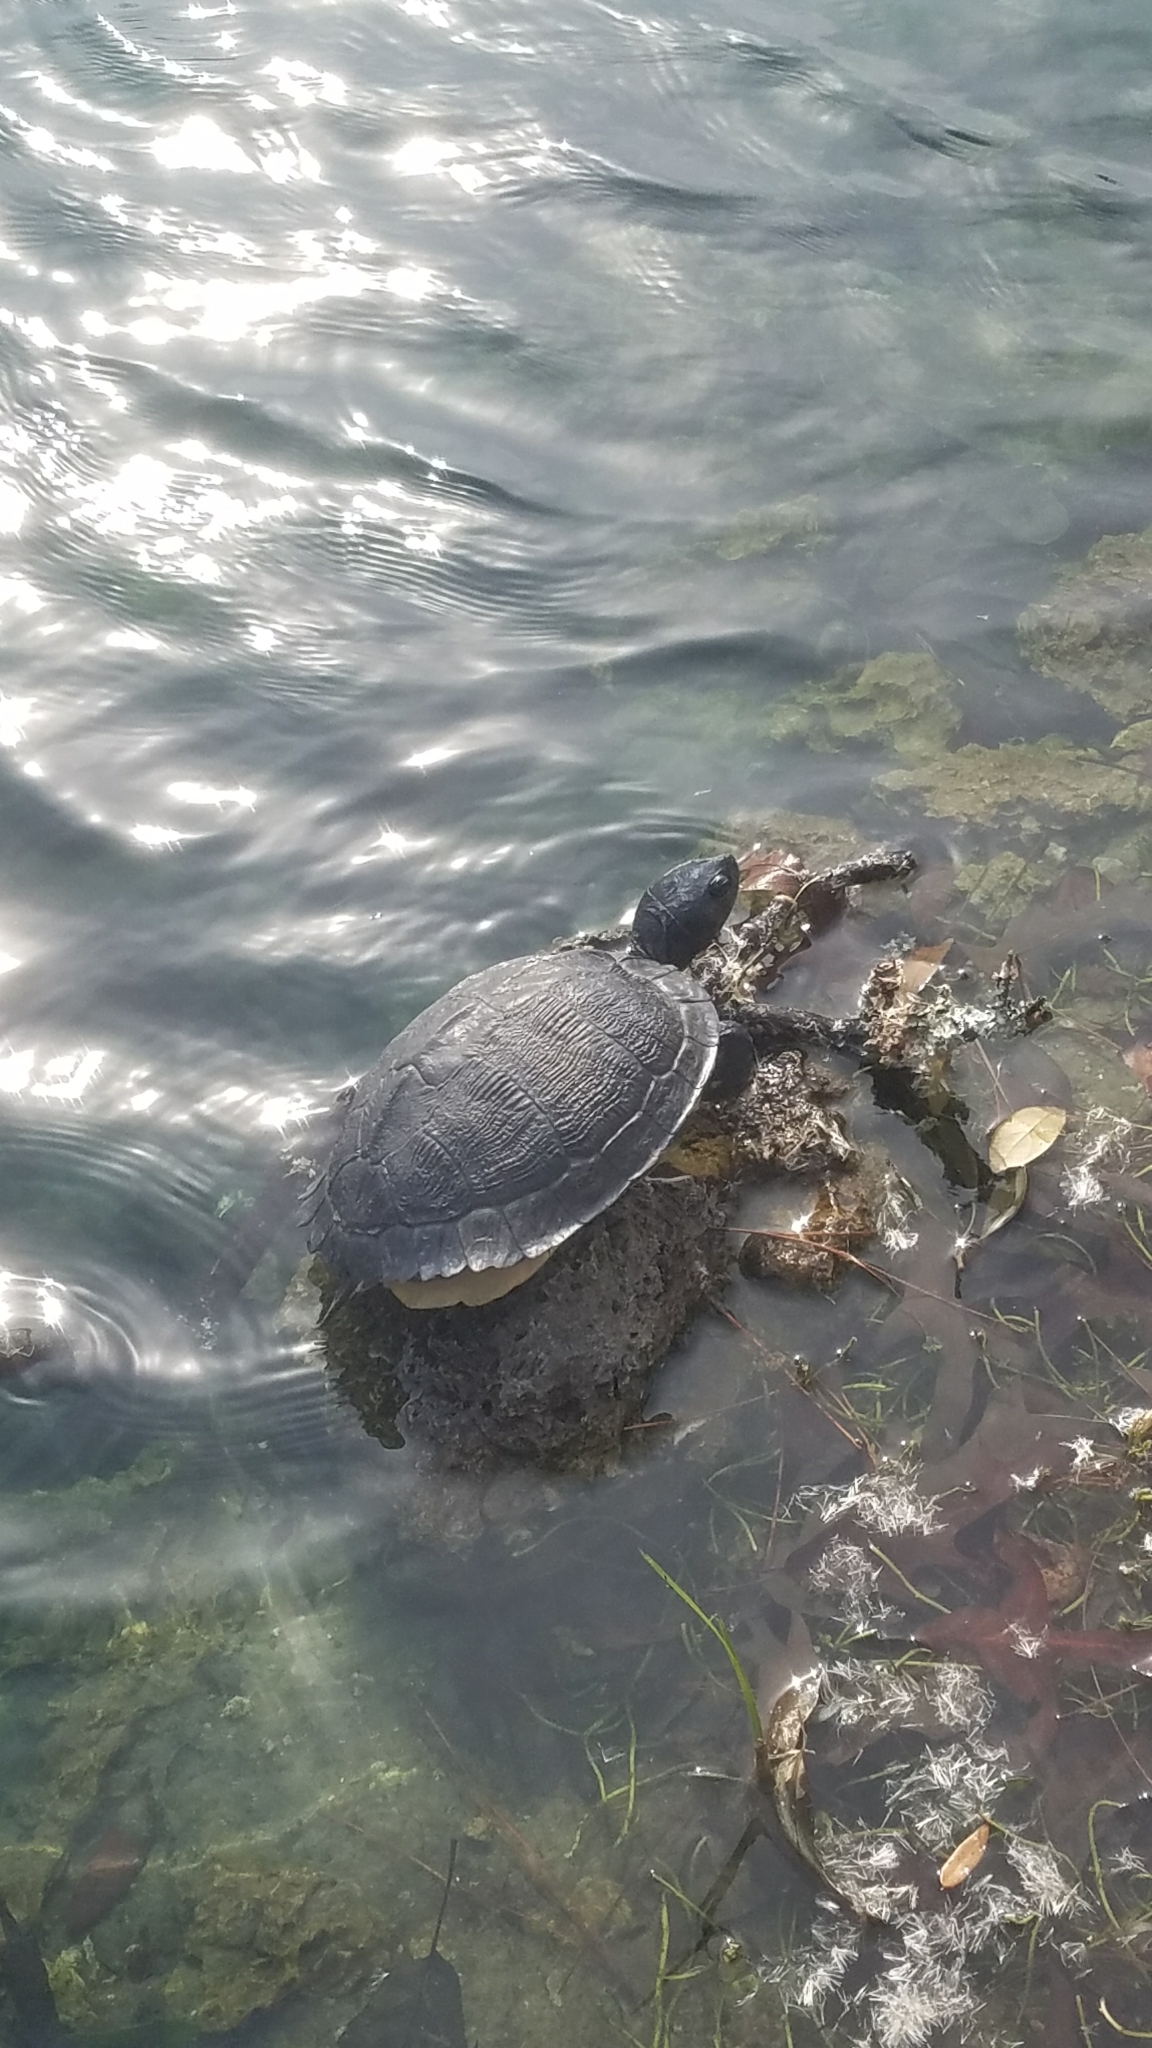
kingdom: Animalia
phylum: Chordata
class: Testudines
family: Emydidae
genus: Trachemys
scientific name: Trachemys scripta
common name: Slider
